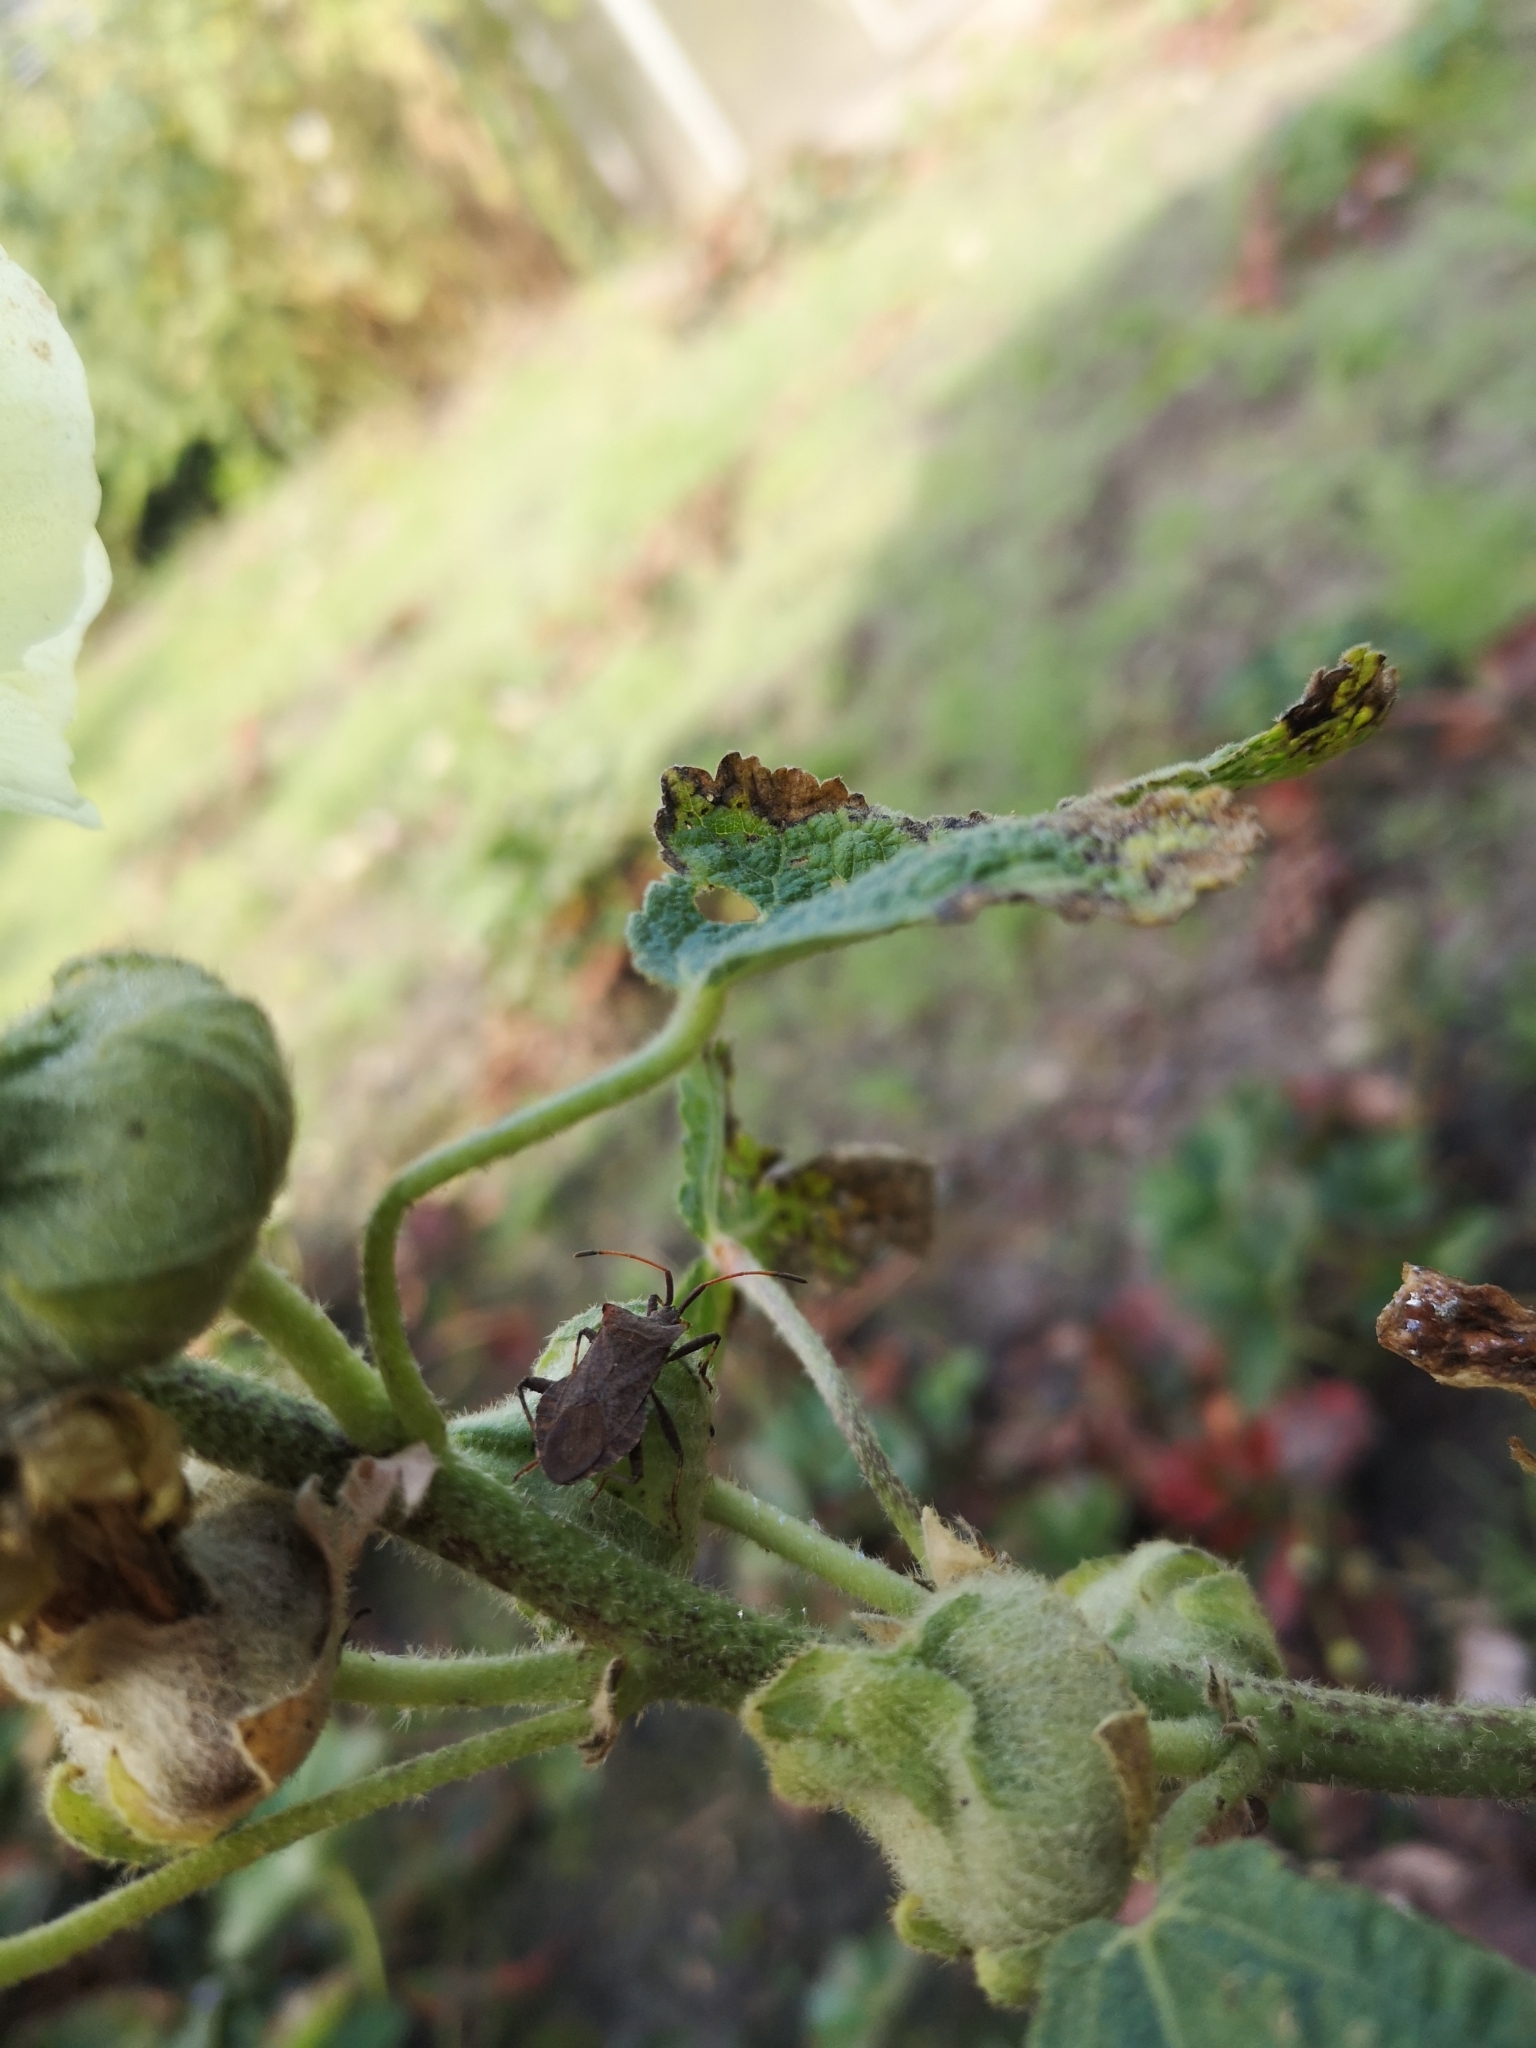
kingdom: Animalia
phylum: Arthropoda
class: Insecta
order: Hemiptera
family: Coreidae
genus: Coreus
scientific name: Coreus marginatus
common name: Dock bug
